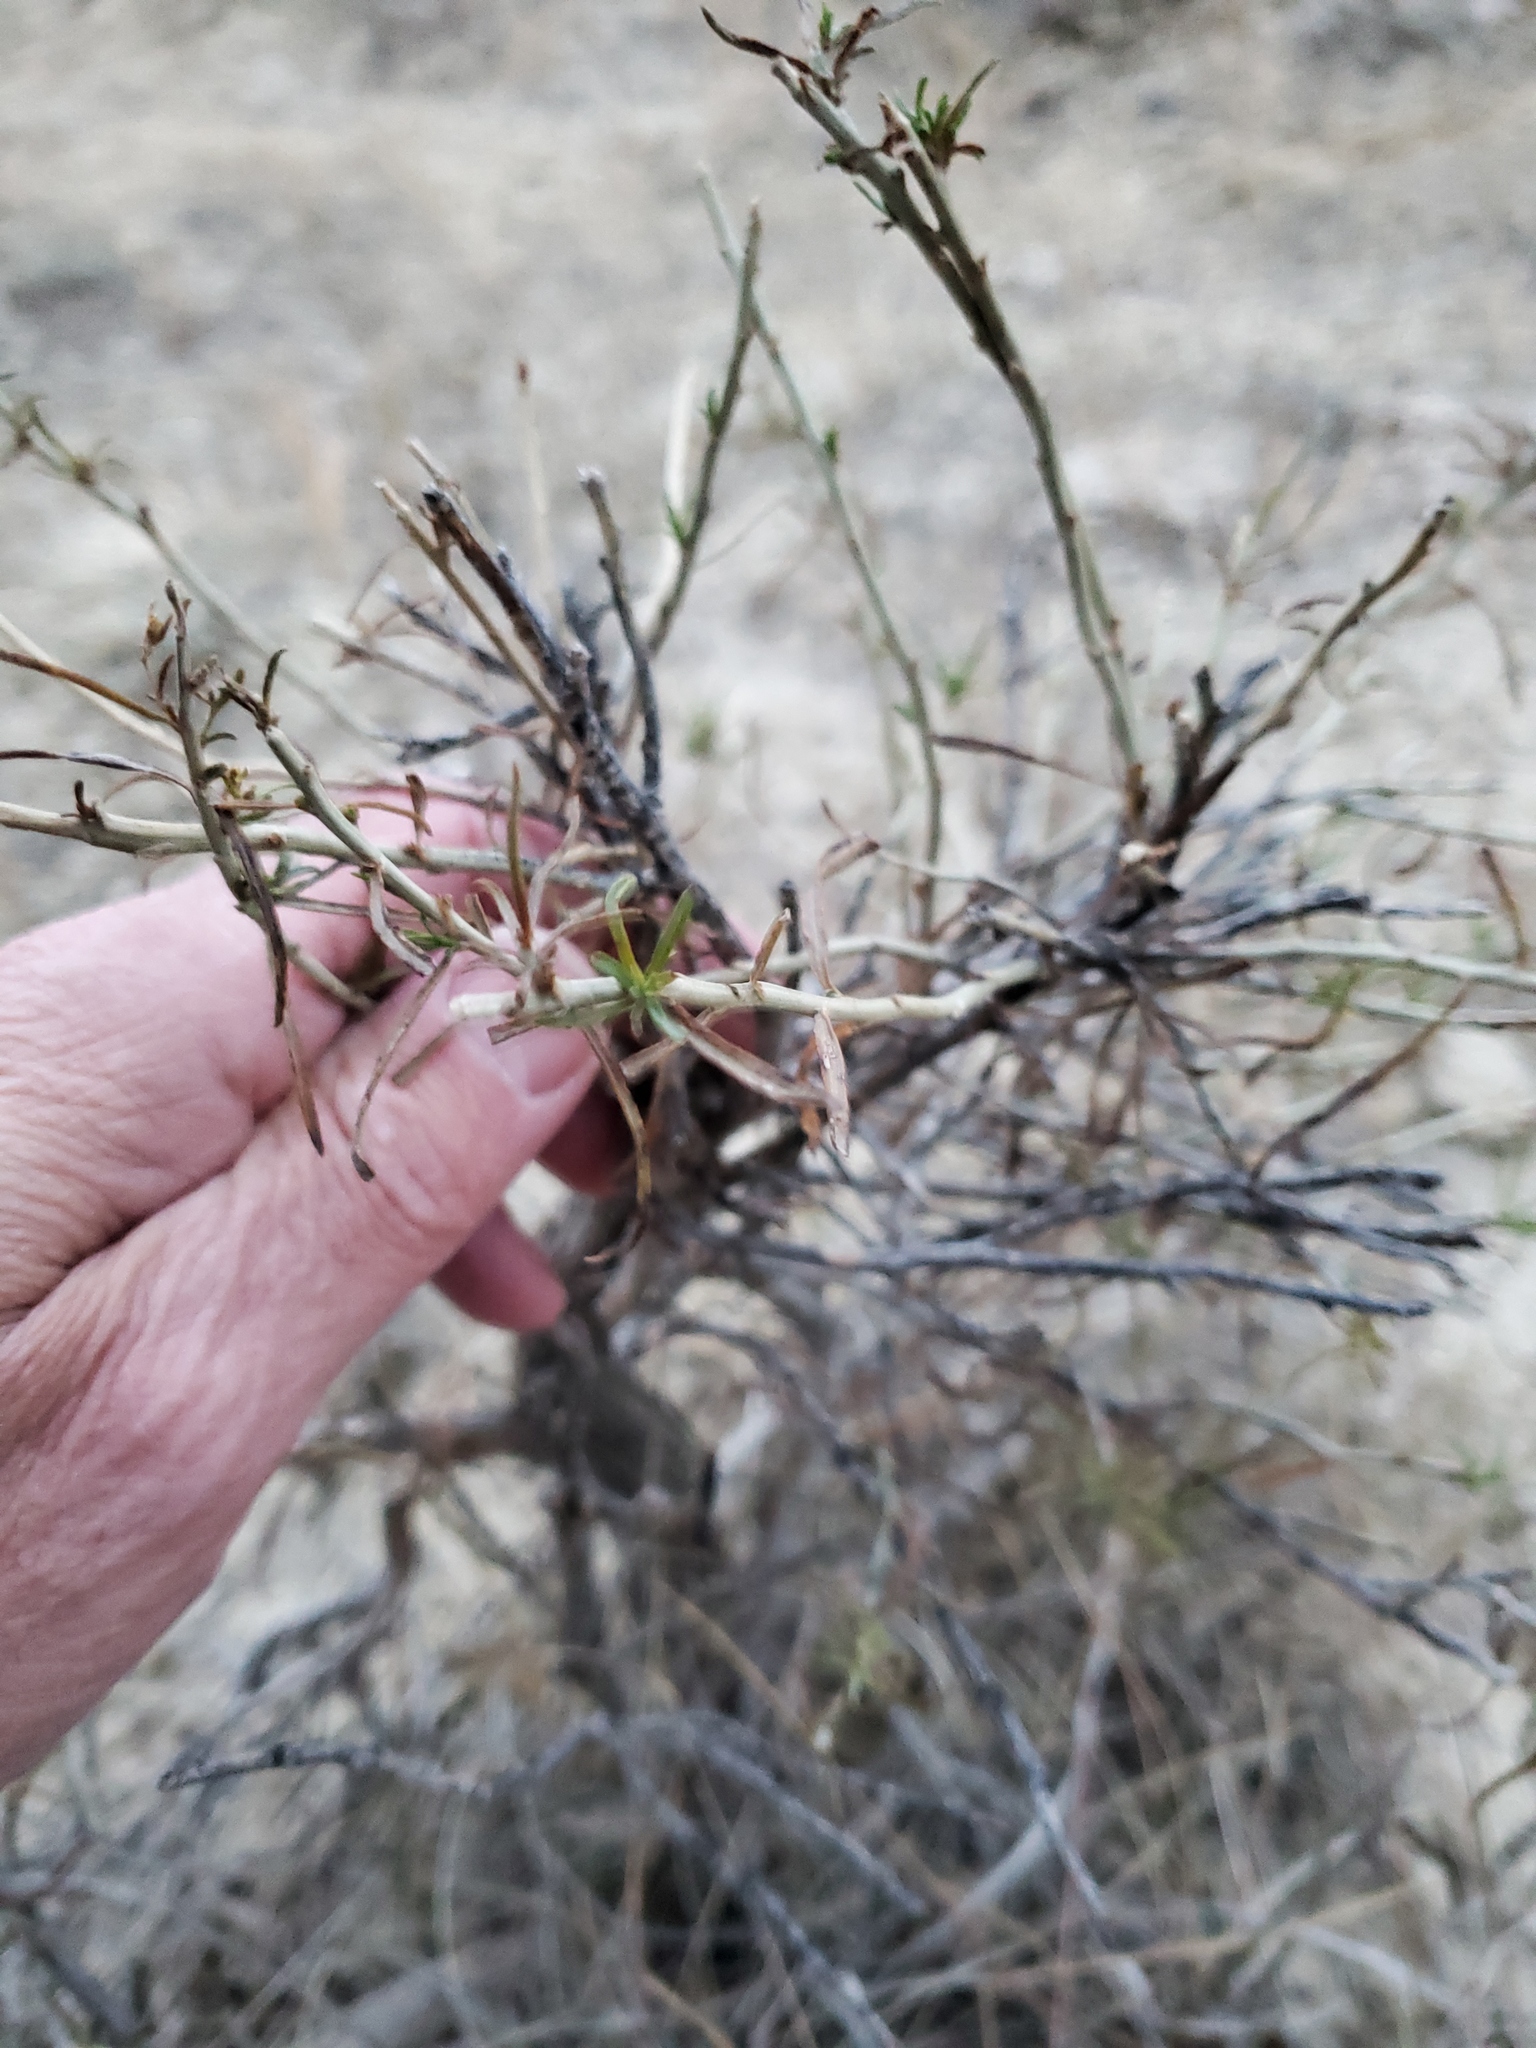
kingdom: Plantae
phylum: Tracheophyta
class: Magnoliopsida
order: Asterales
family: Asteraceae
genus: Ericameria
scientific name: Ericameria nauseosa
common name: Rubber rabbitbrush
